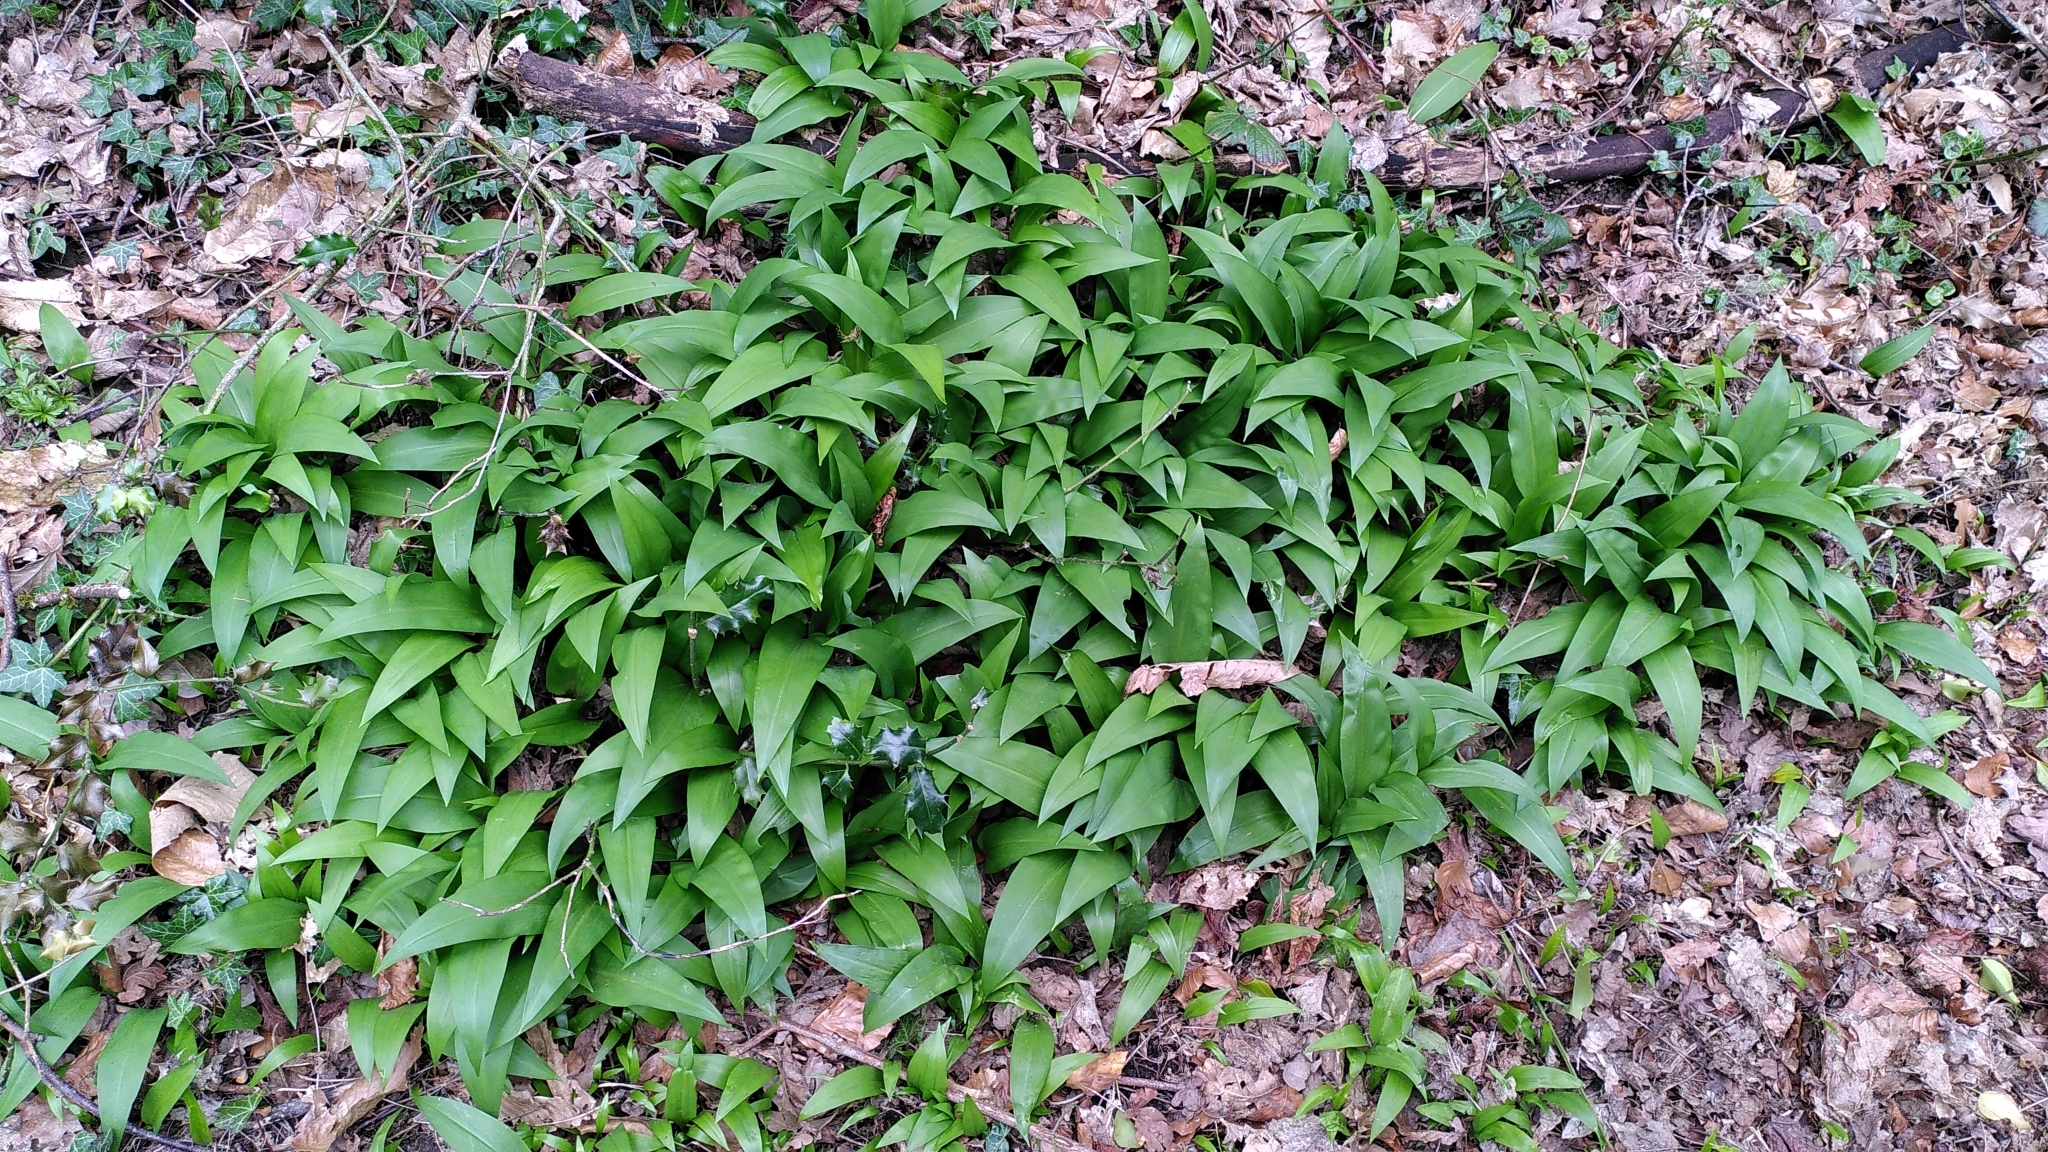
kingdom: Plantae
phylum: Tracheophyta
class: Liliopsida
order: Asparagales
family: Amaryllidaceae
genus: Allium
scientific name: Allium ursinum
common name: Ramsons
